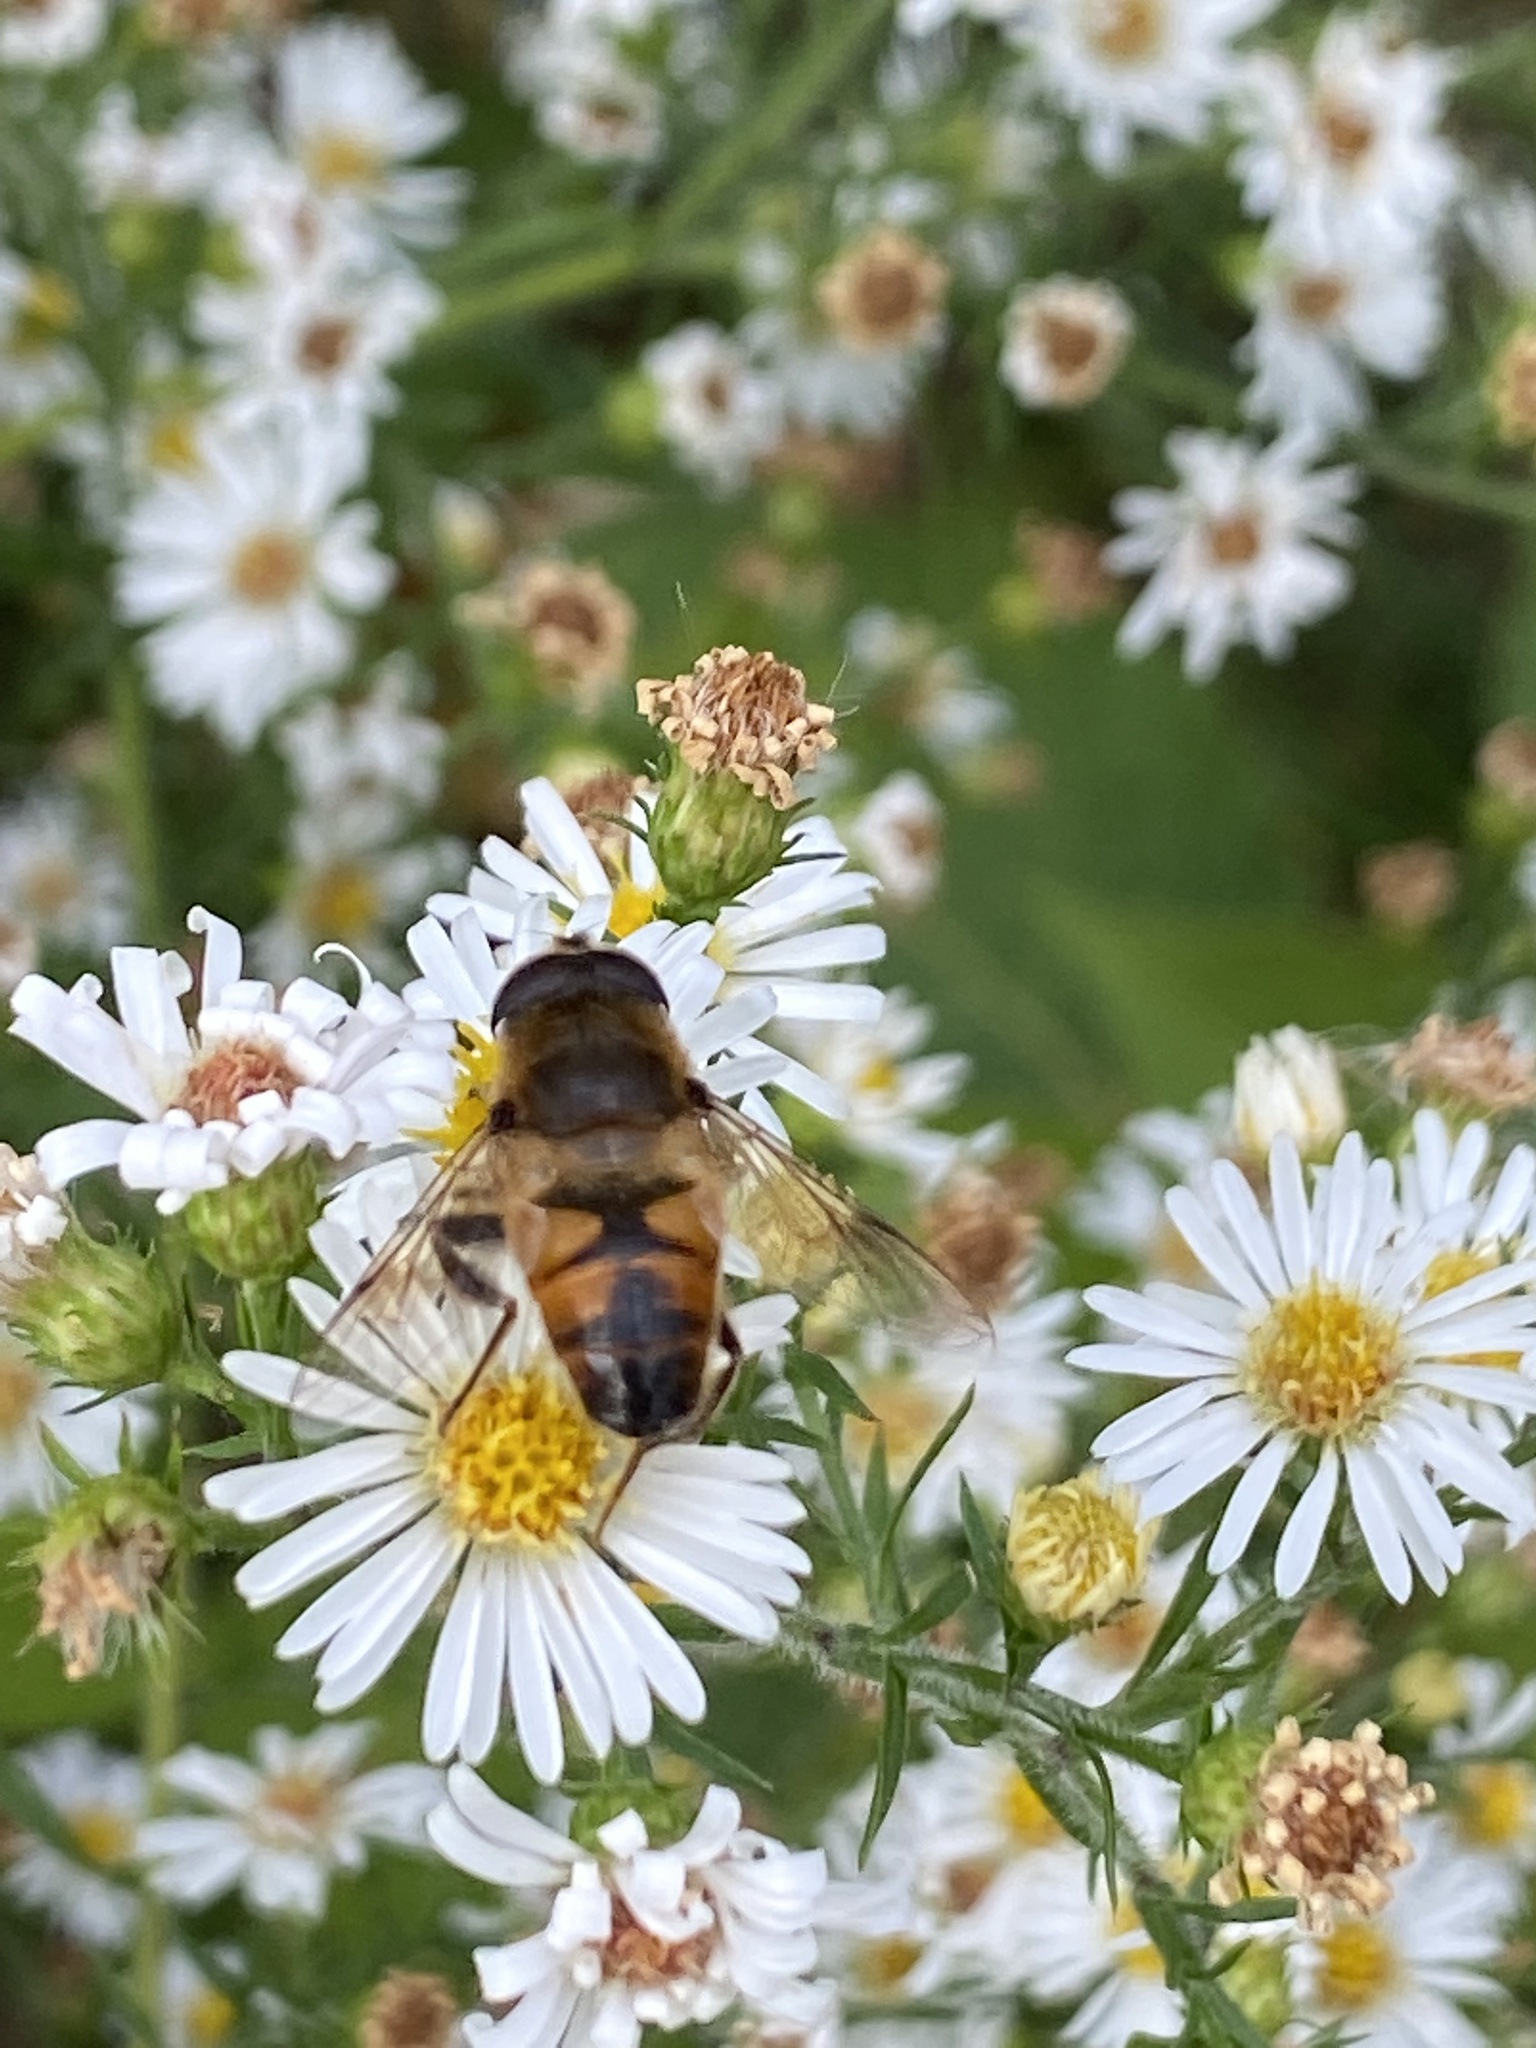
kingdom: Animalia
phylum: Arthropoda
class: Insecta
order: Diptera
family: Syrphidae
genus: Eristalis
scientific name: Eristalis tenax
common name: Drone fly
